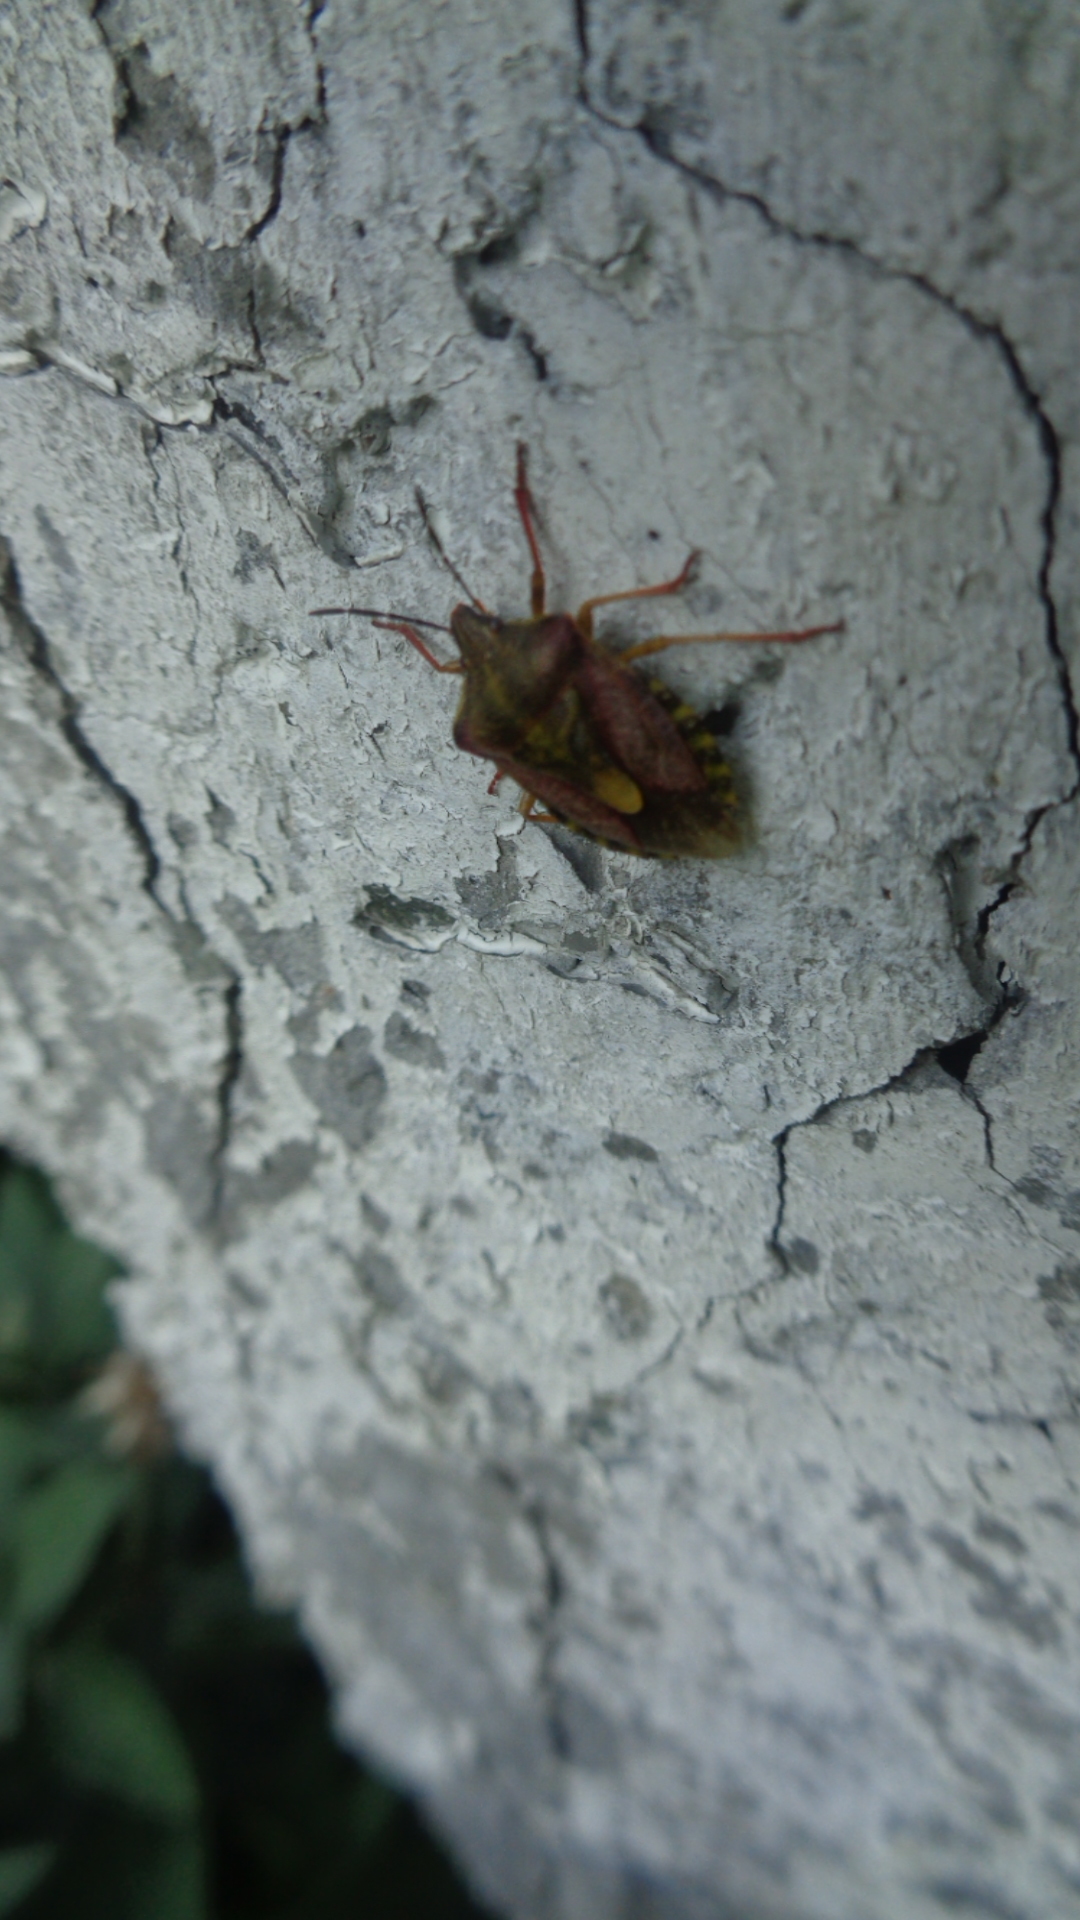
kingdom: Animalia
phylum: Arthropoda
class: Insecta
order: Hemiptera
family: Pentatomidae
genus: Carpocoris
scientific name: Carpocoris purpureipennis
